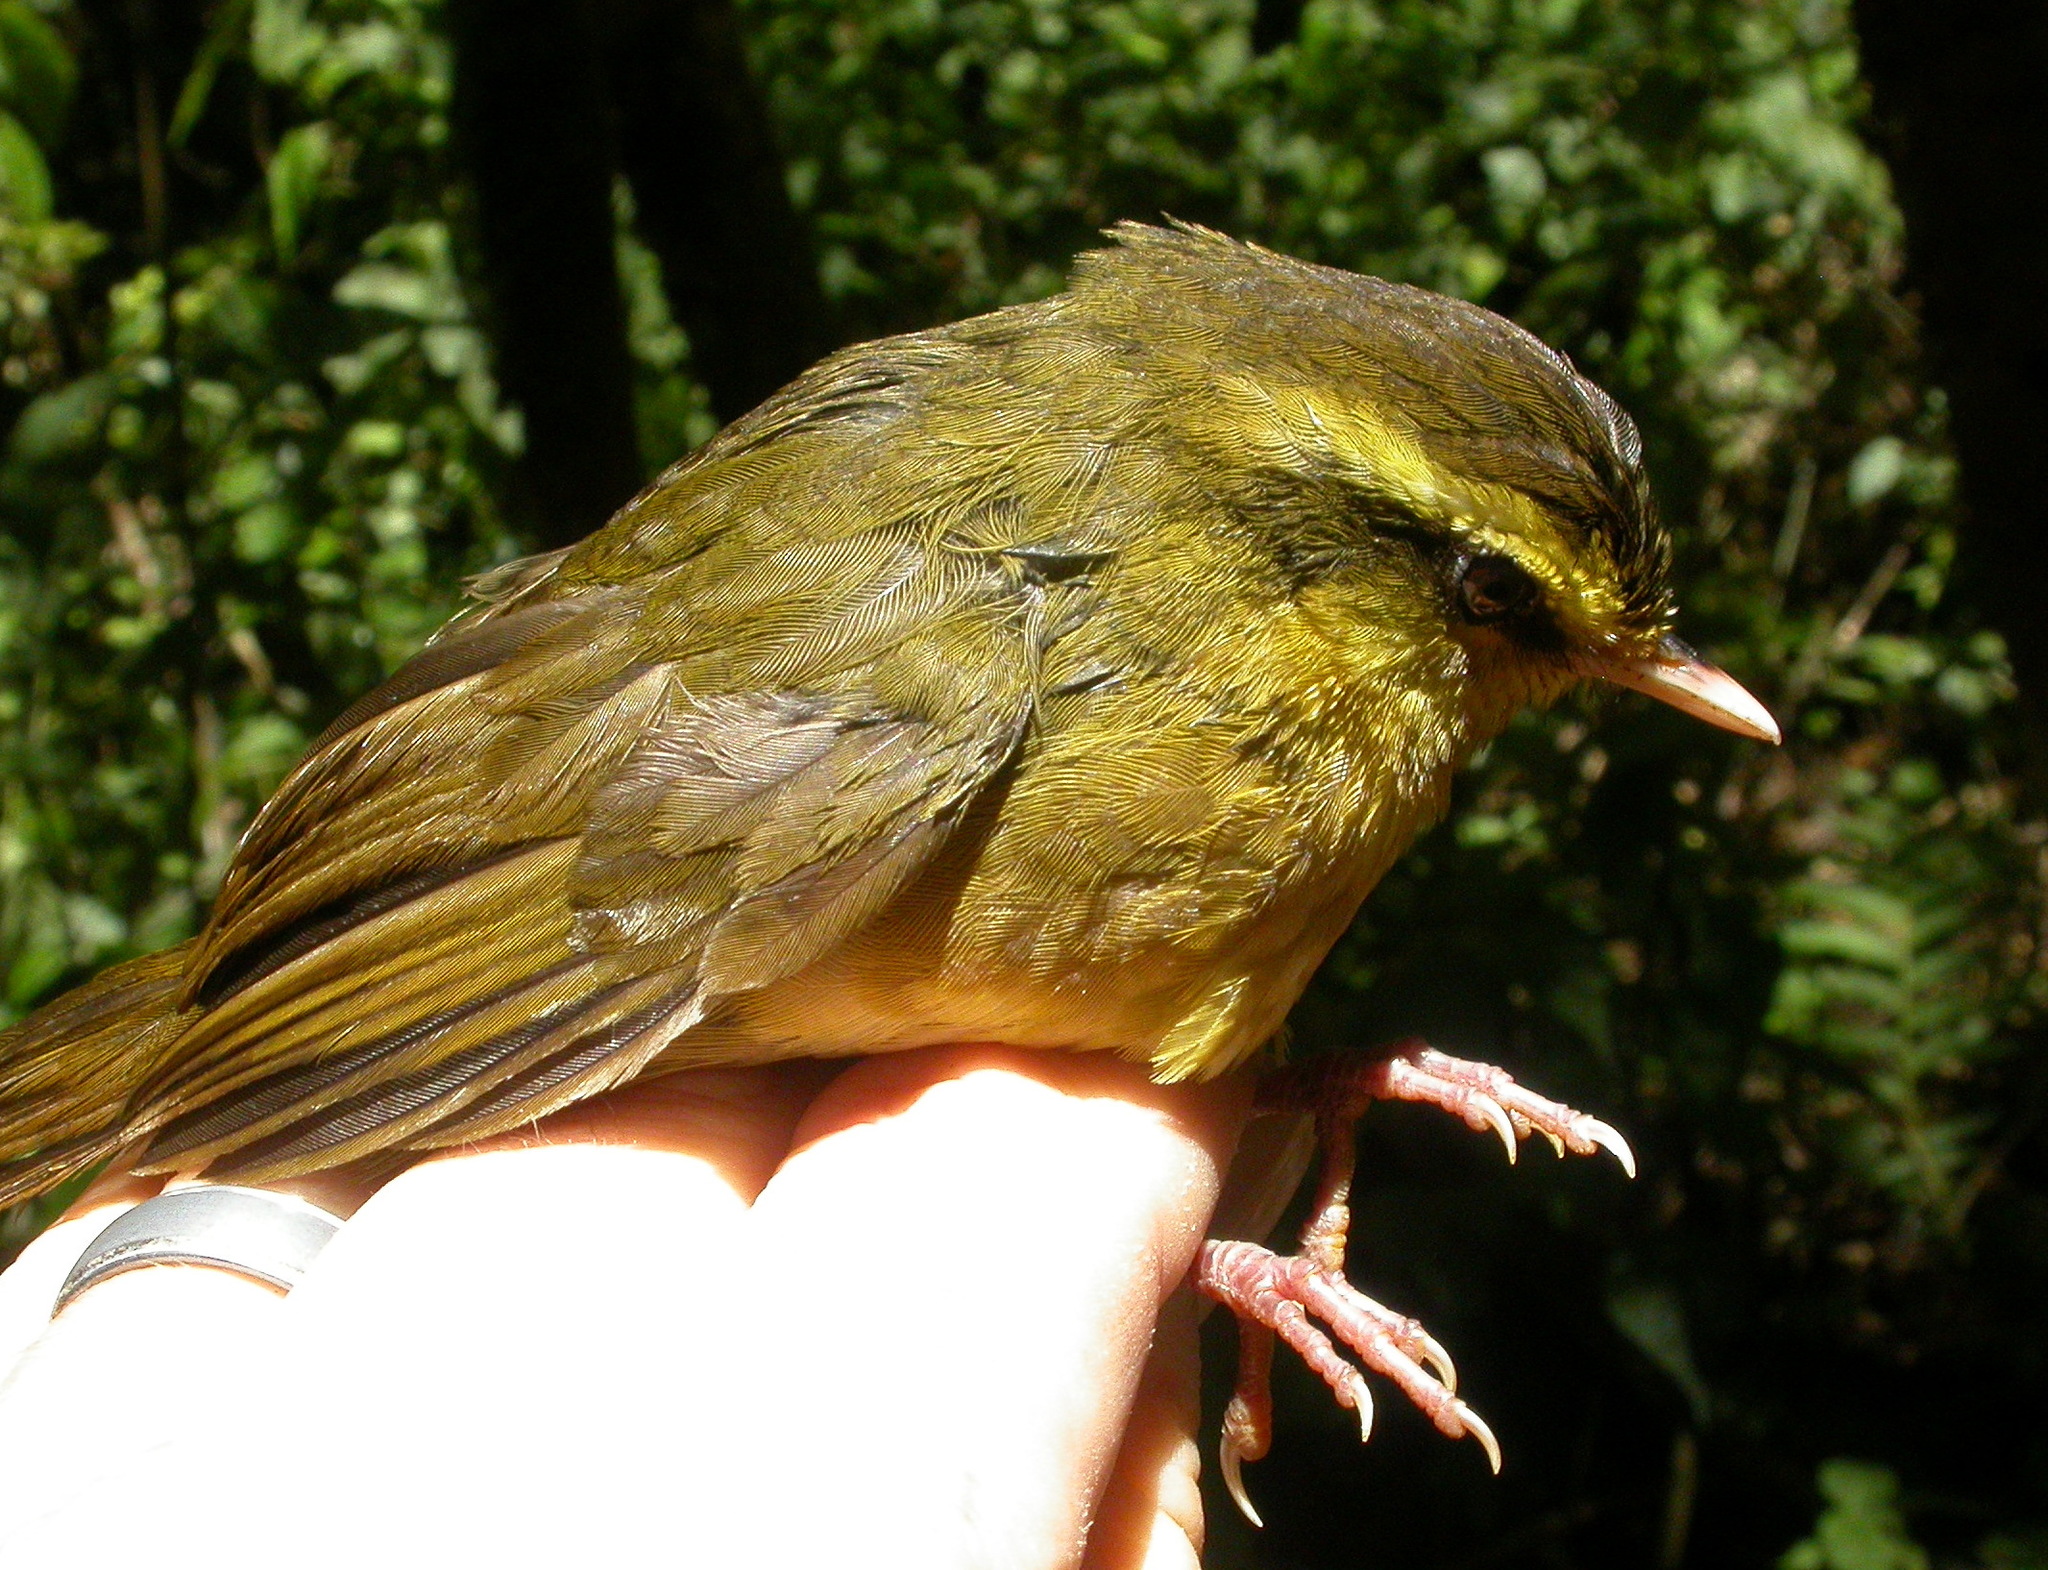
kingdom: Animalia
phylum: Chordata
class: Aves
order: Passeriformes
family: Bernieridae
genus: Crossleyia
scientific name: Crossleyia xanthophrys
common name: Madagascar yellowbrow
